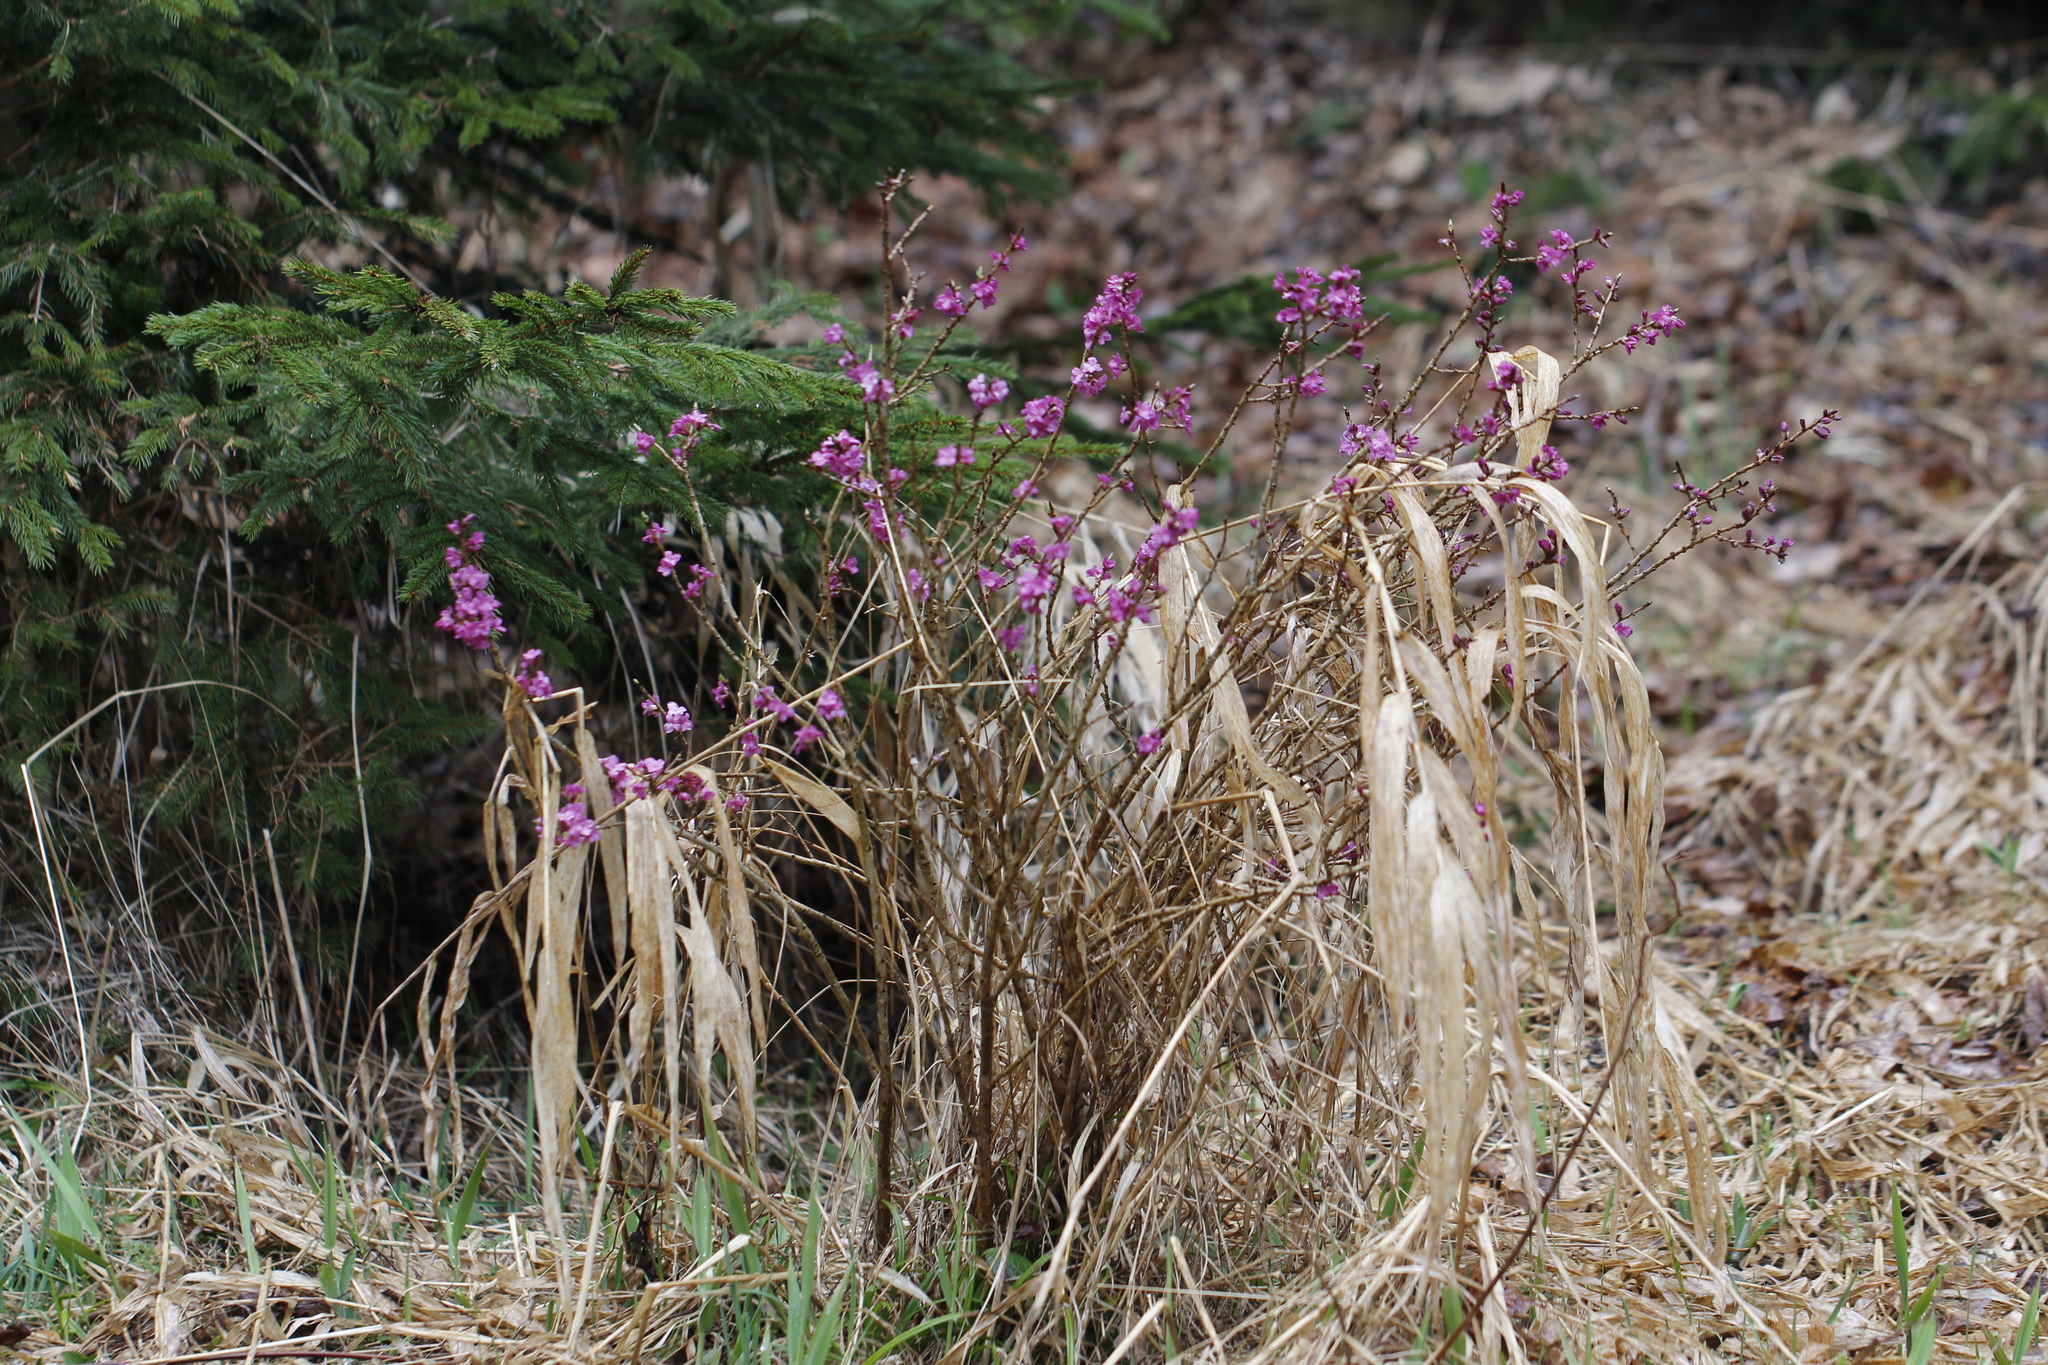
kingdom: Plantae
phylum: Tracheophyta
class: Magnoliopsida
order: Malvales
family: Thymelaeaceae
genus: Daphne
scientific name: Daphne mezereum
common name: Mezereon
